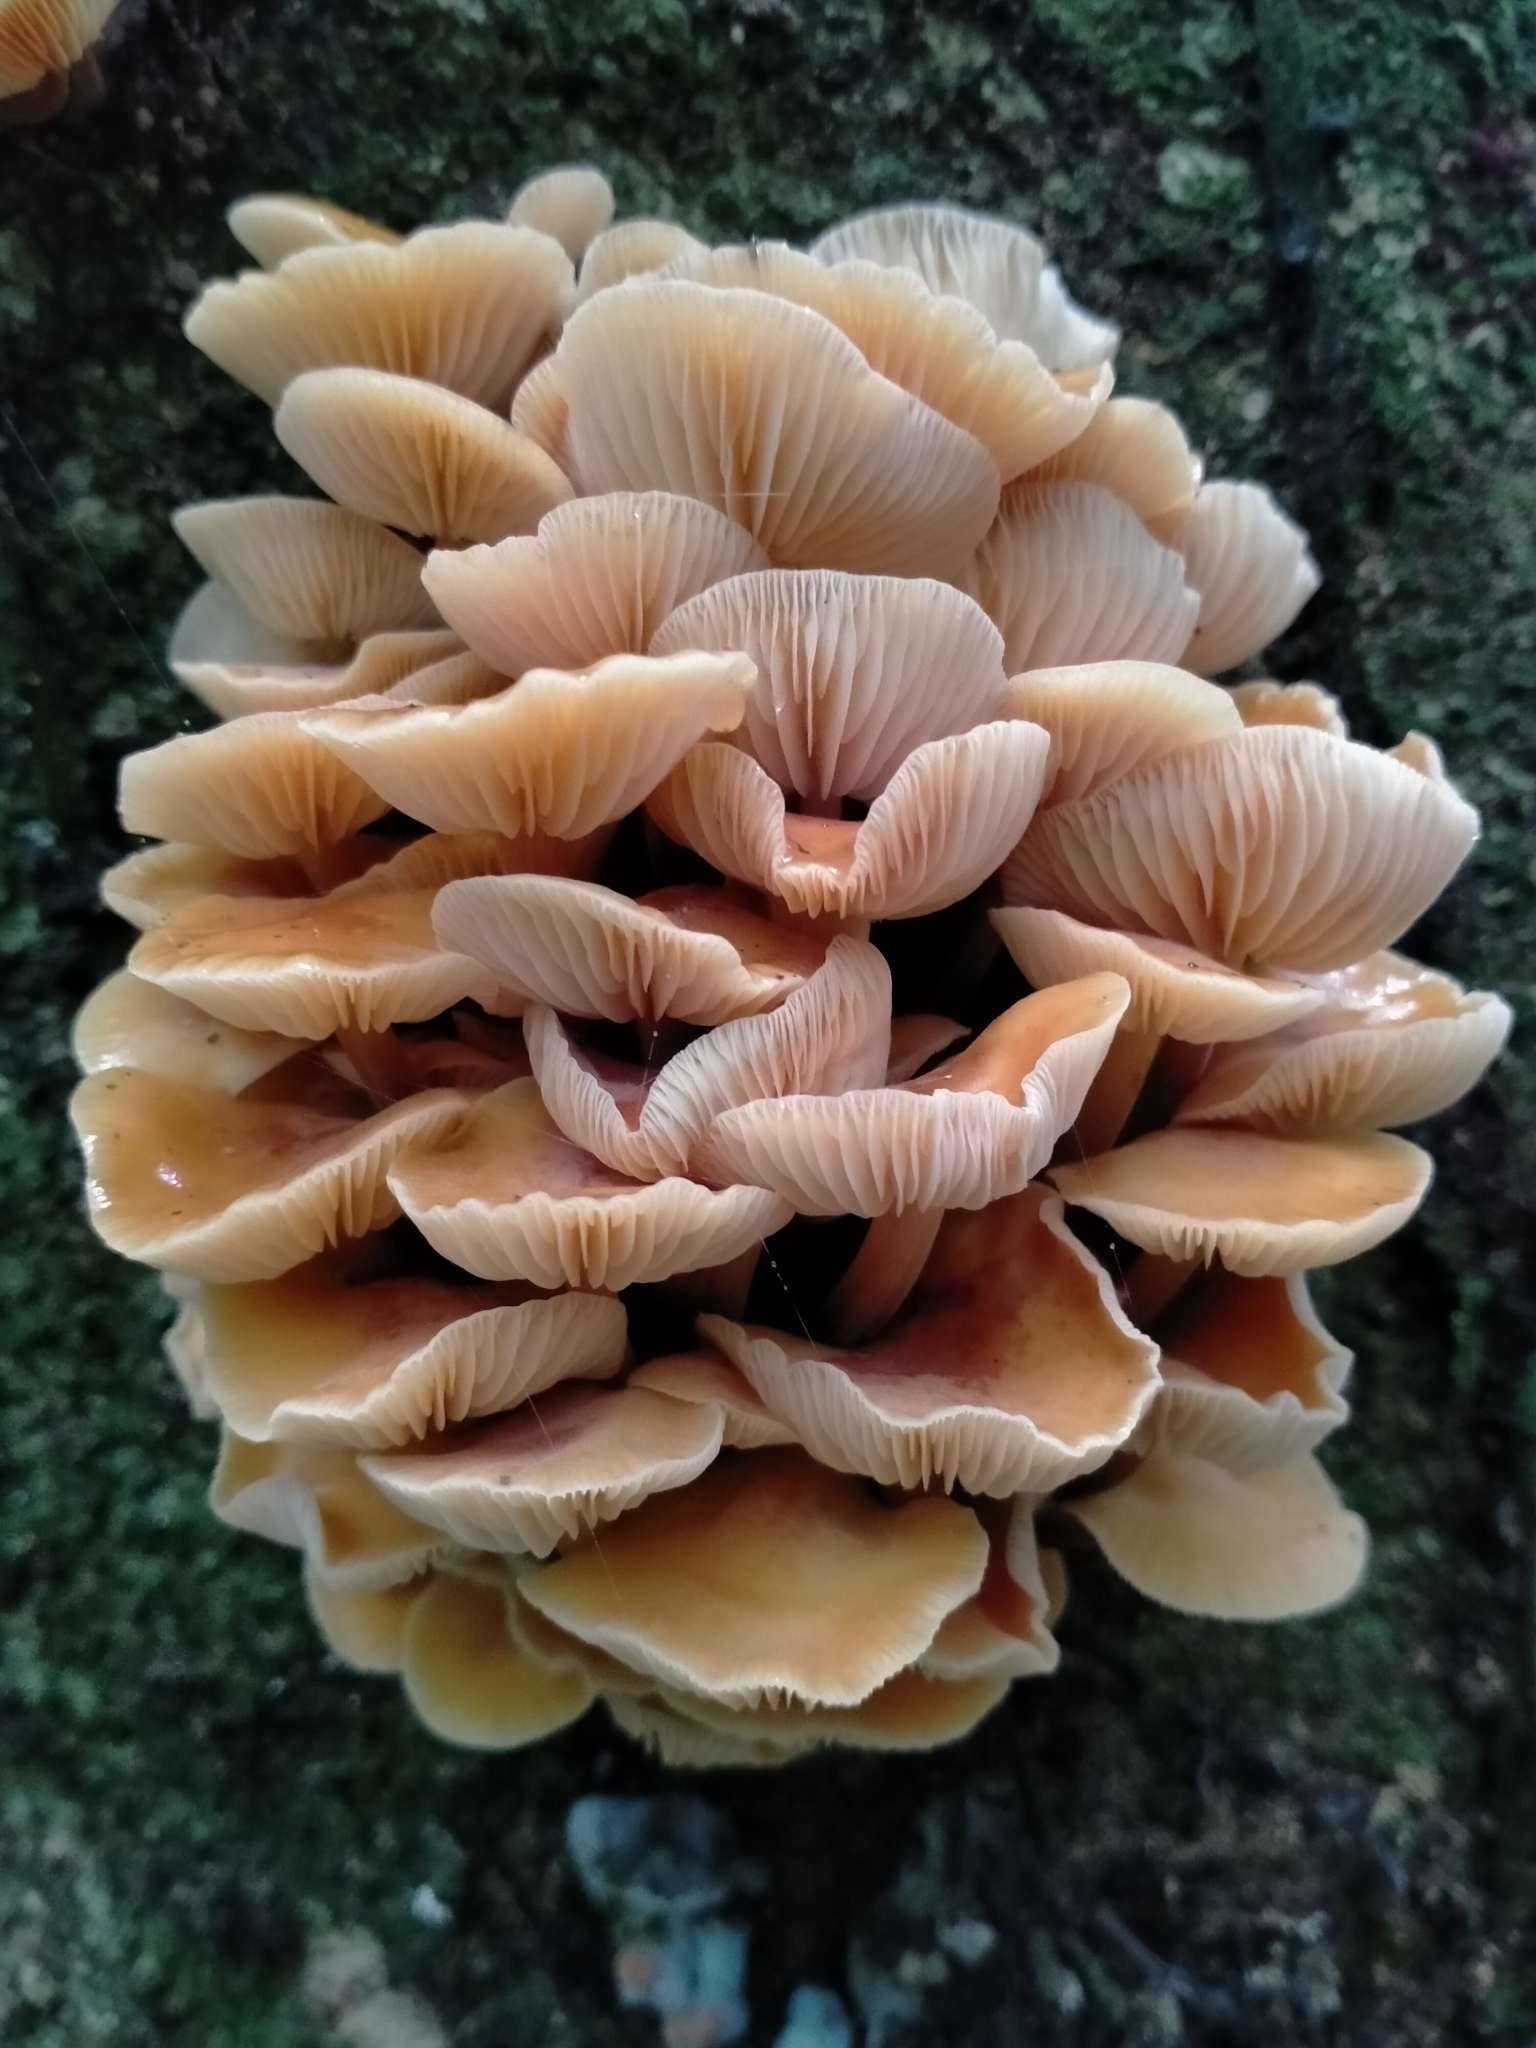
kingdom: Fungi
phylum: Basidiomycota
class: Agaricomycetes
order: Agaricales
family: Physalacriaceae
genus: Flammulina
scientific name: Flammulina velutipes
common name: Velvet shank
